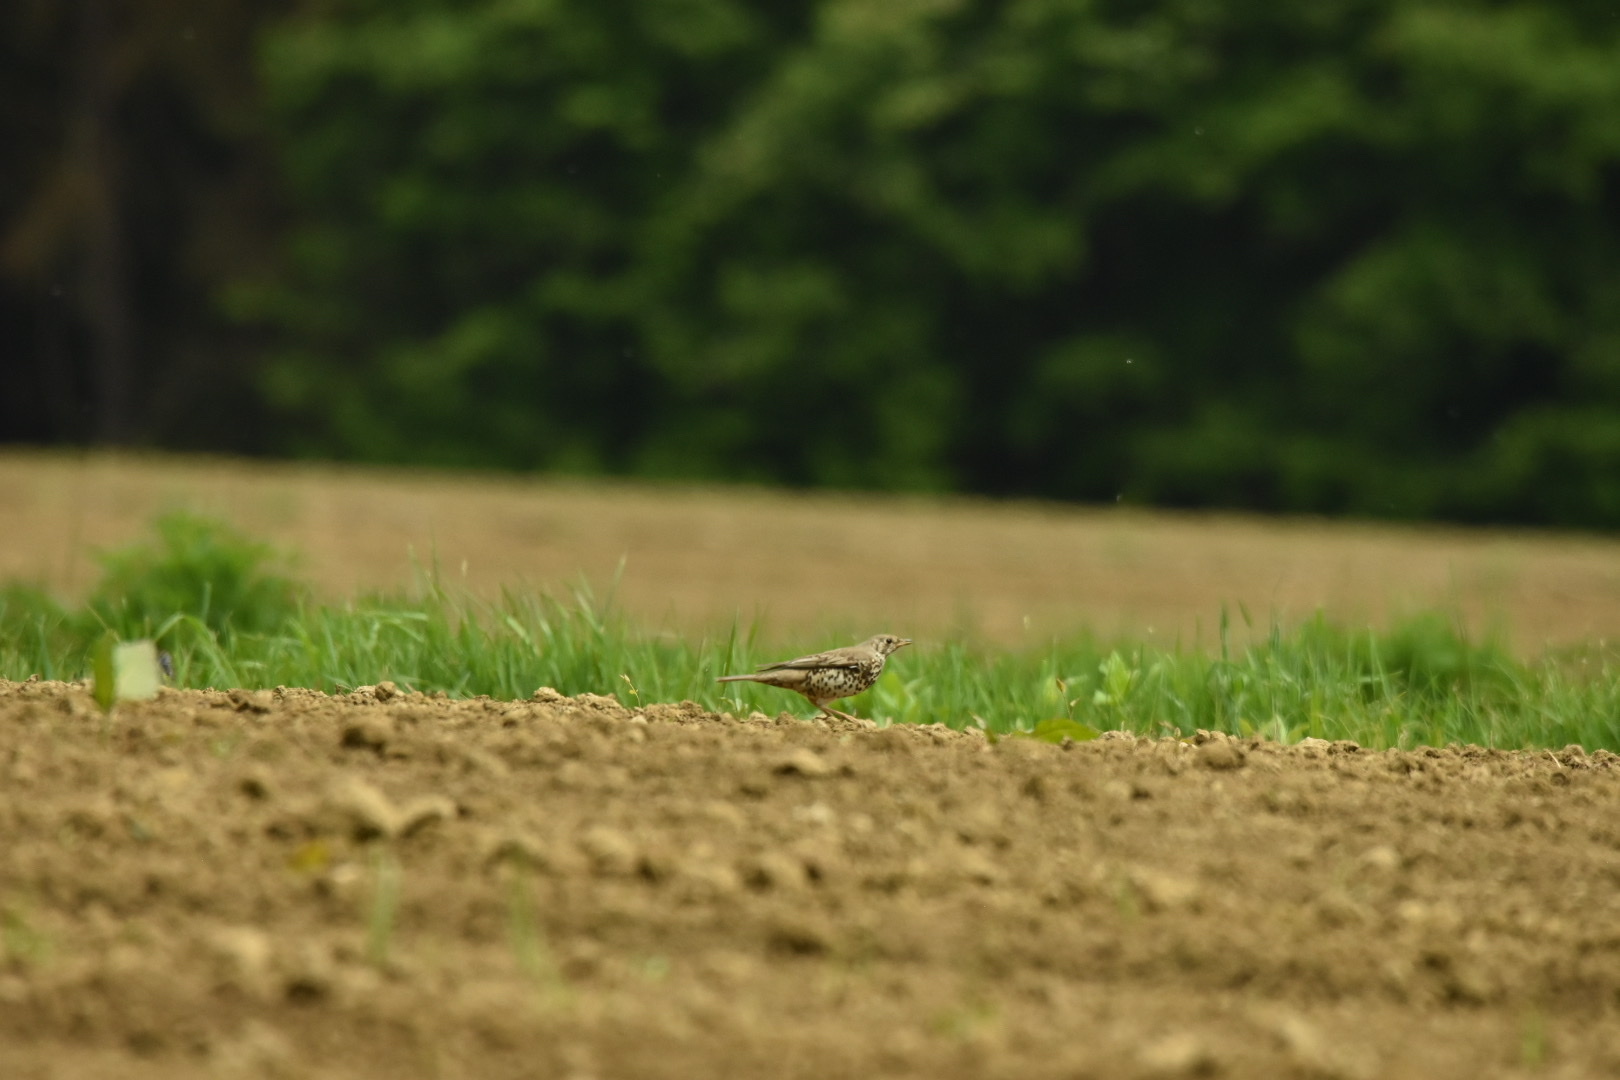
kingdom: Animalia
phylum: Chordata
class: Aves
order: Passeriformes
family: Turdidae
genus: Turdus
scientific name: Turdus viscivorus
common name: Mistle thrush
